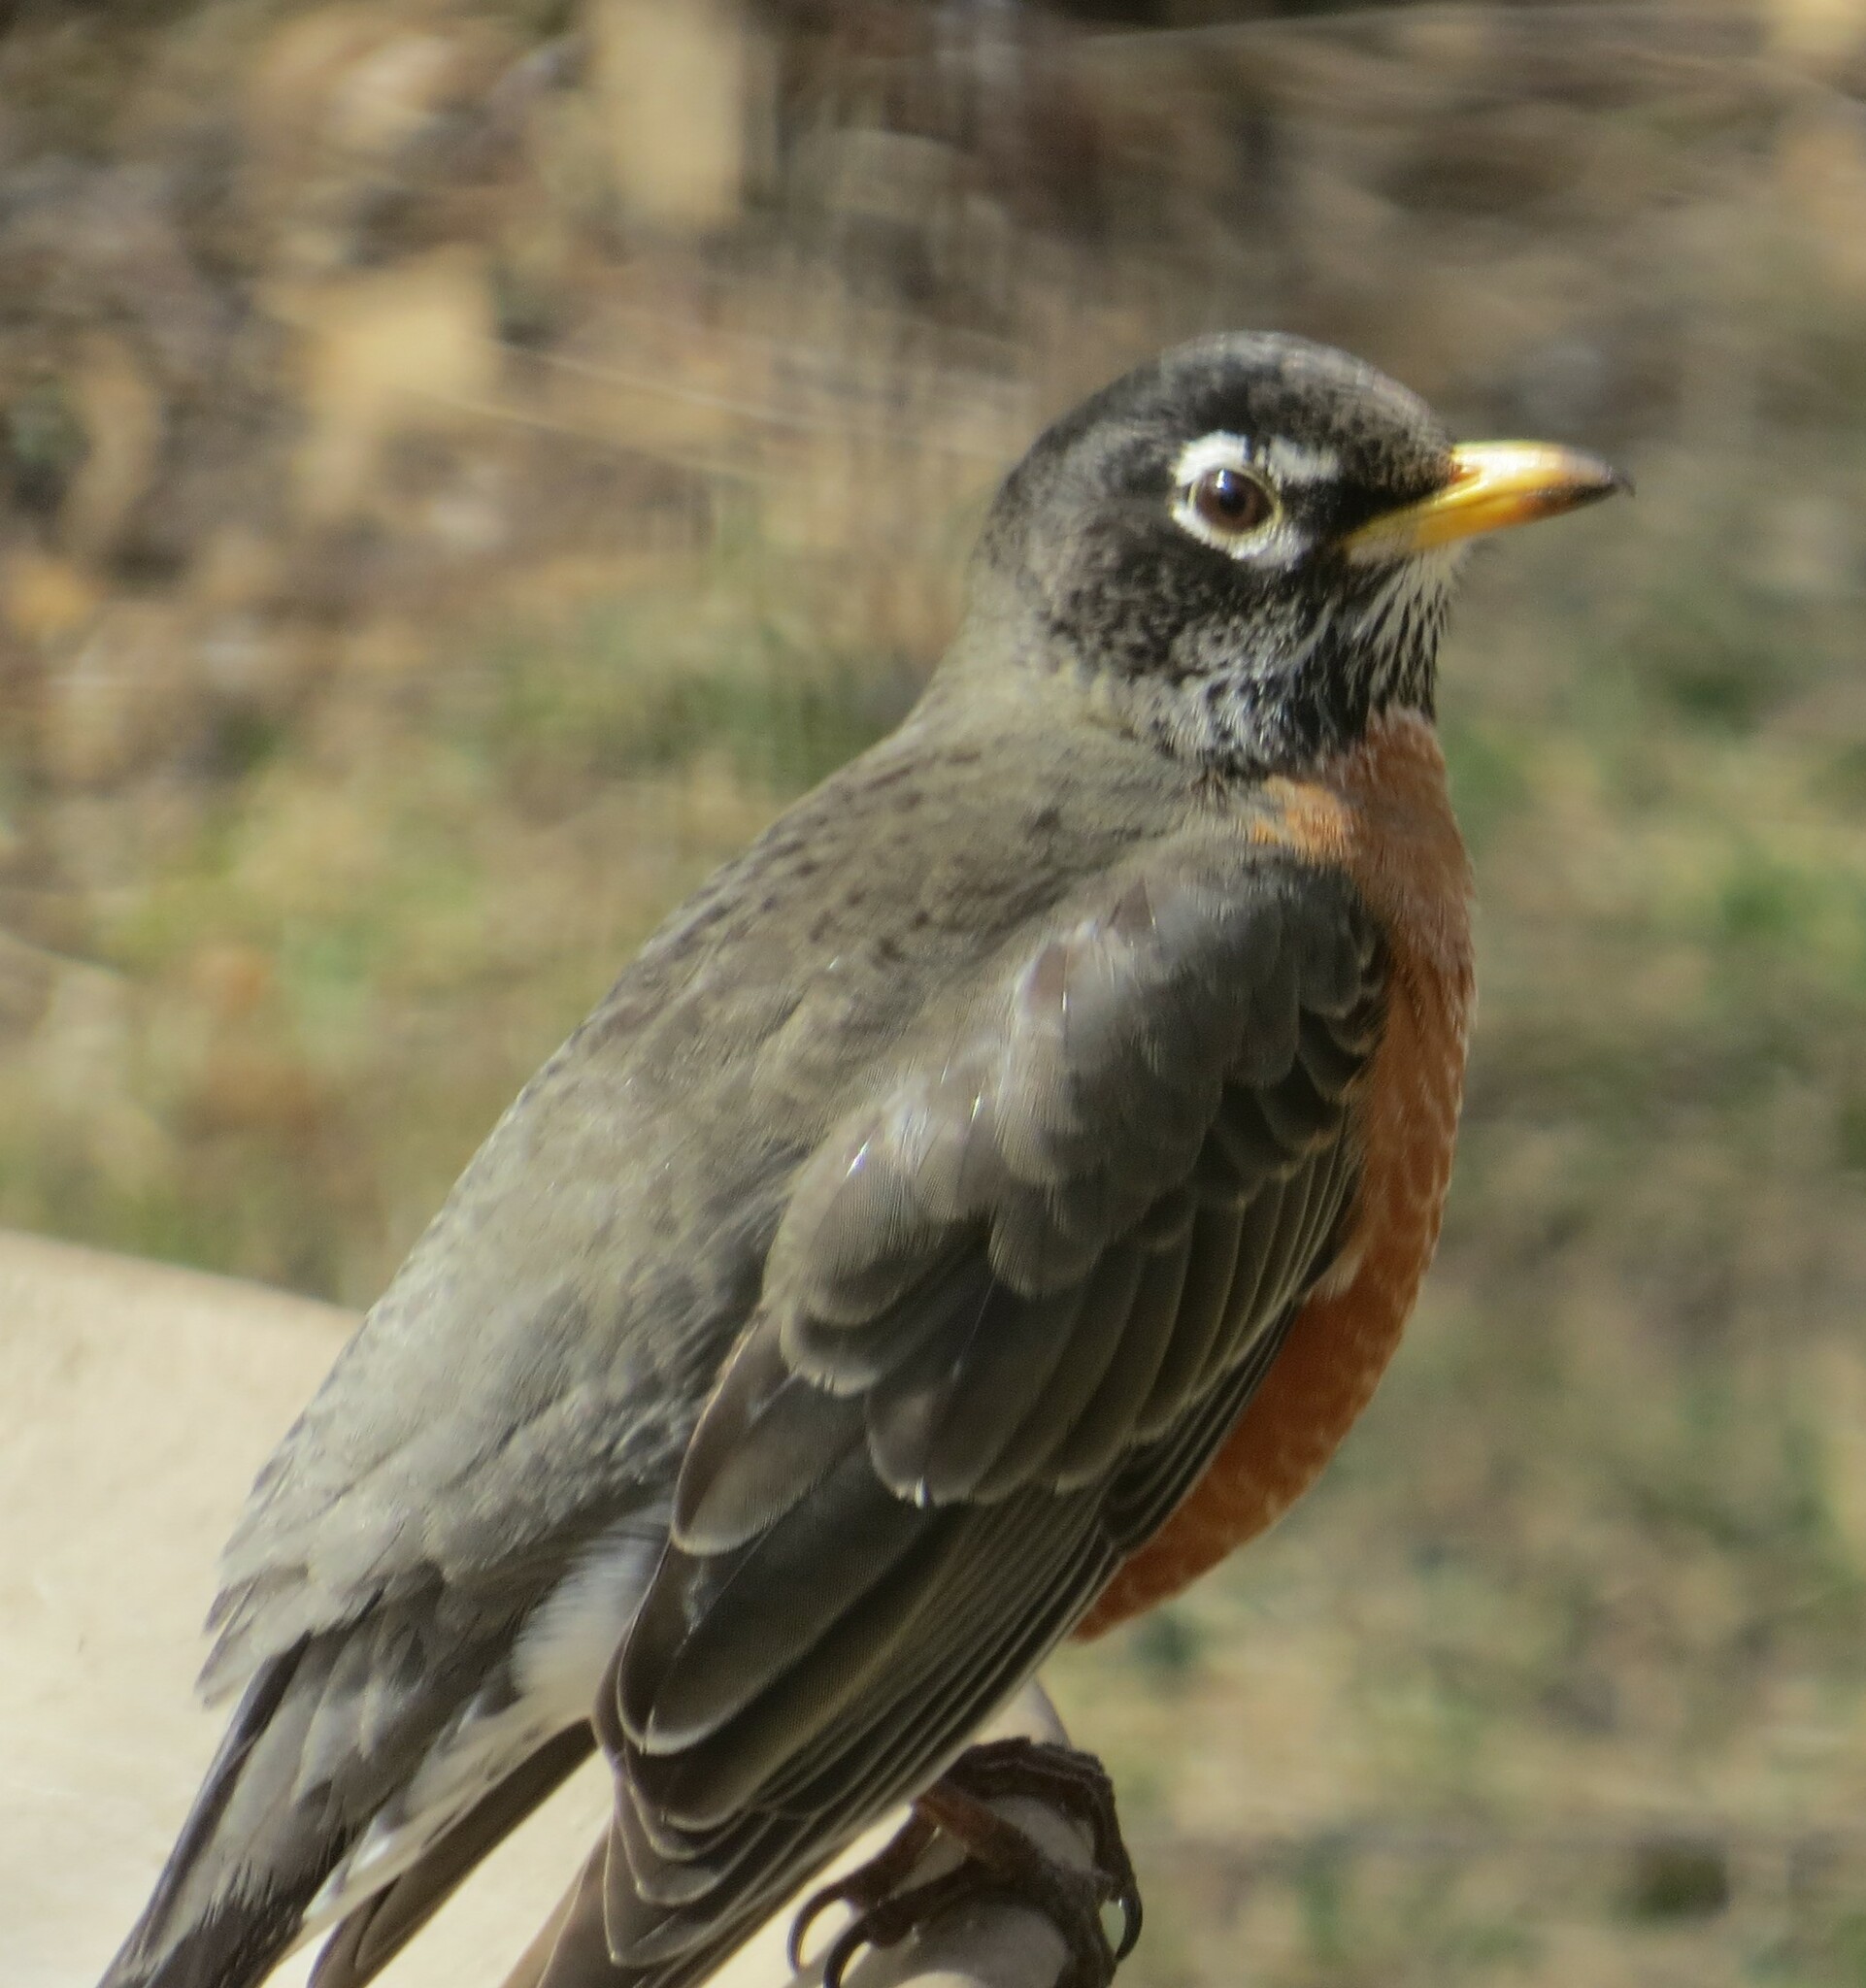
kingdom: Animalia
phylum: Chordata
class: Aves
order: Passeriformes
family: Turdidae
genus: Turdus
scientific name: Turdus migratorius
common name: American robin
